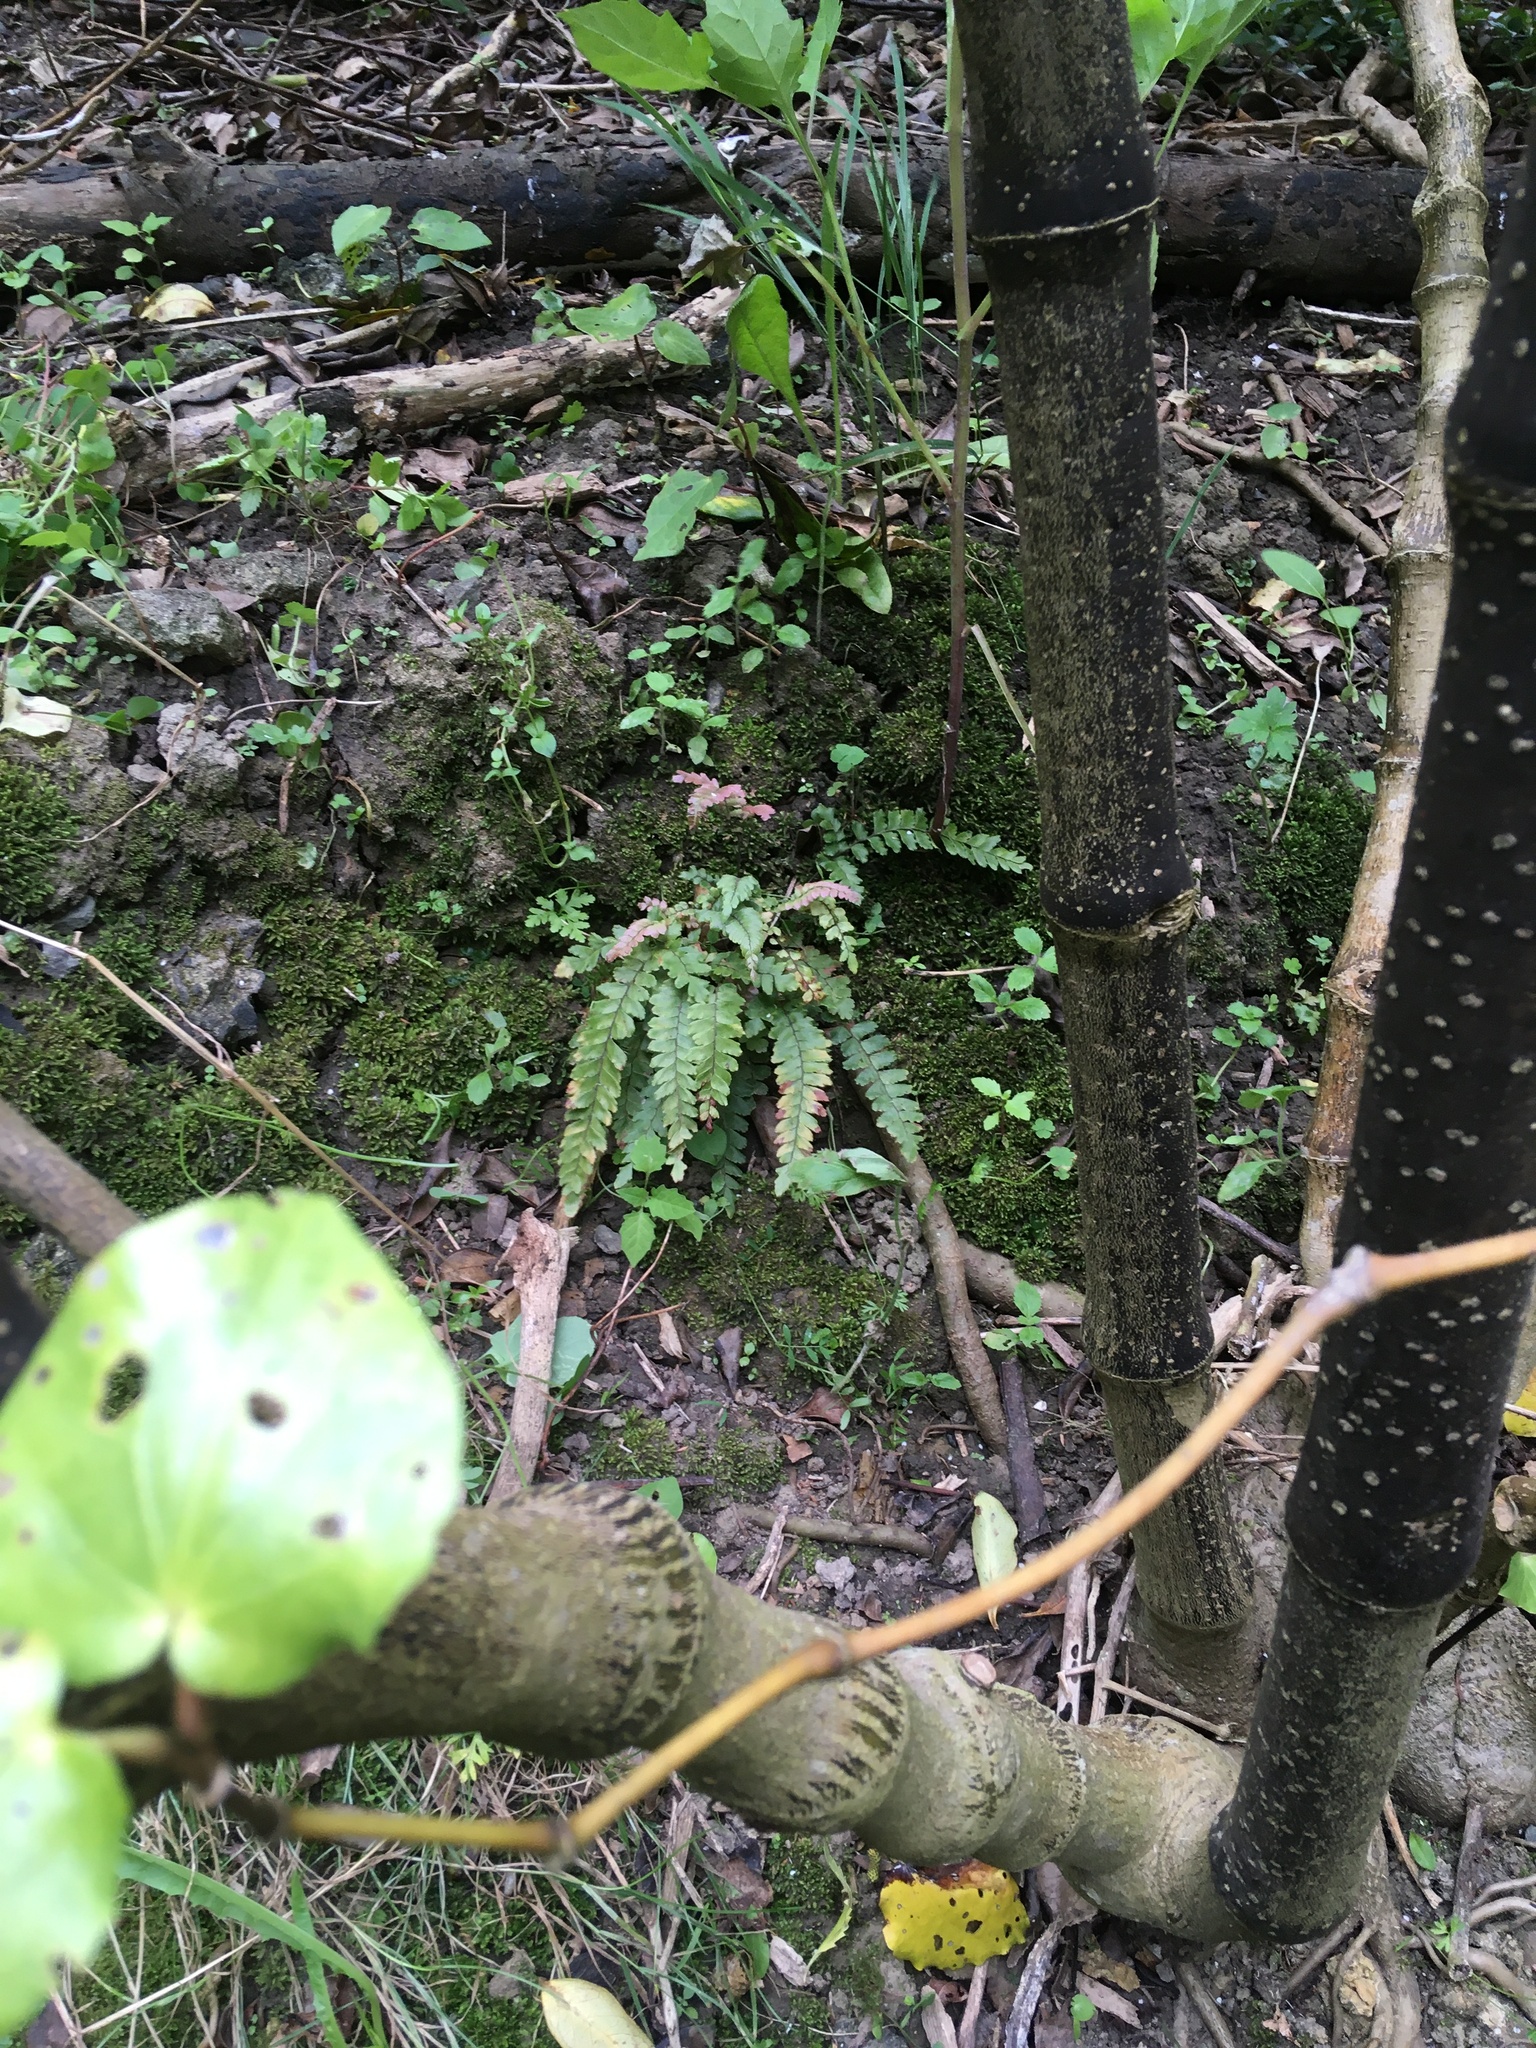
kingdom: Plantae
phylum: Tracheophyta
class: Magnoliopsida
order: Piperales
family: Piperaceae
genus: Macropiper
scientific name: Macropiper excelsum
